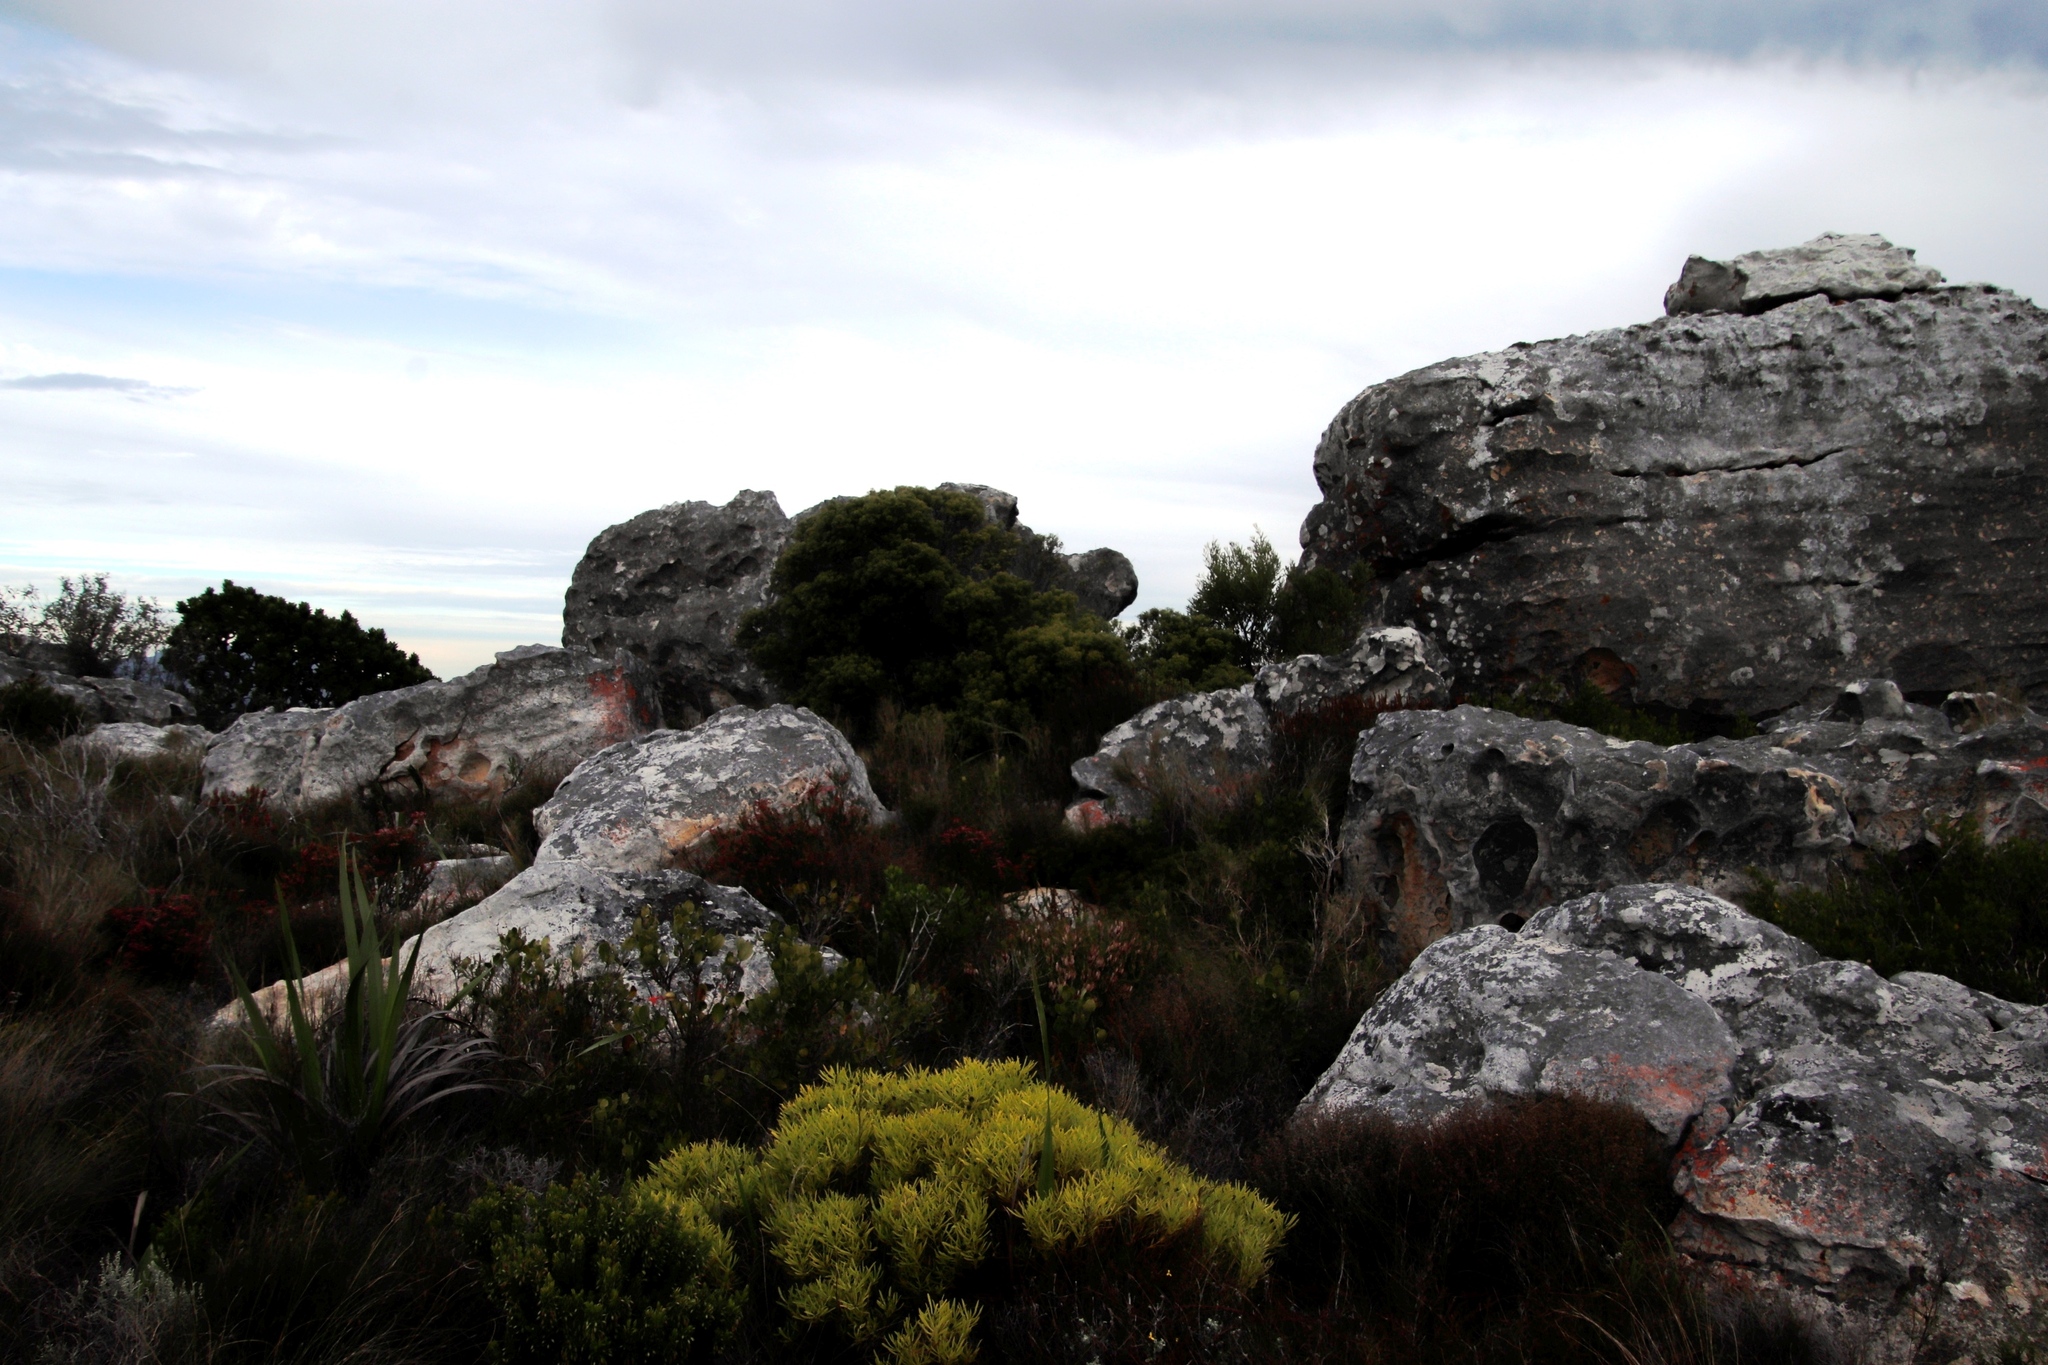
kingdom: Plantae
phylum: Tracheophyta
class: Magnoliopsida
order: Proteales
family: Proteaceae
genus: Leucadendron
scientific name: Leucadendron salignum
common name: Common sunshine conebush
